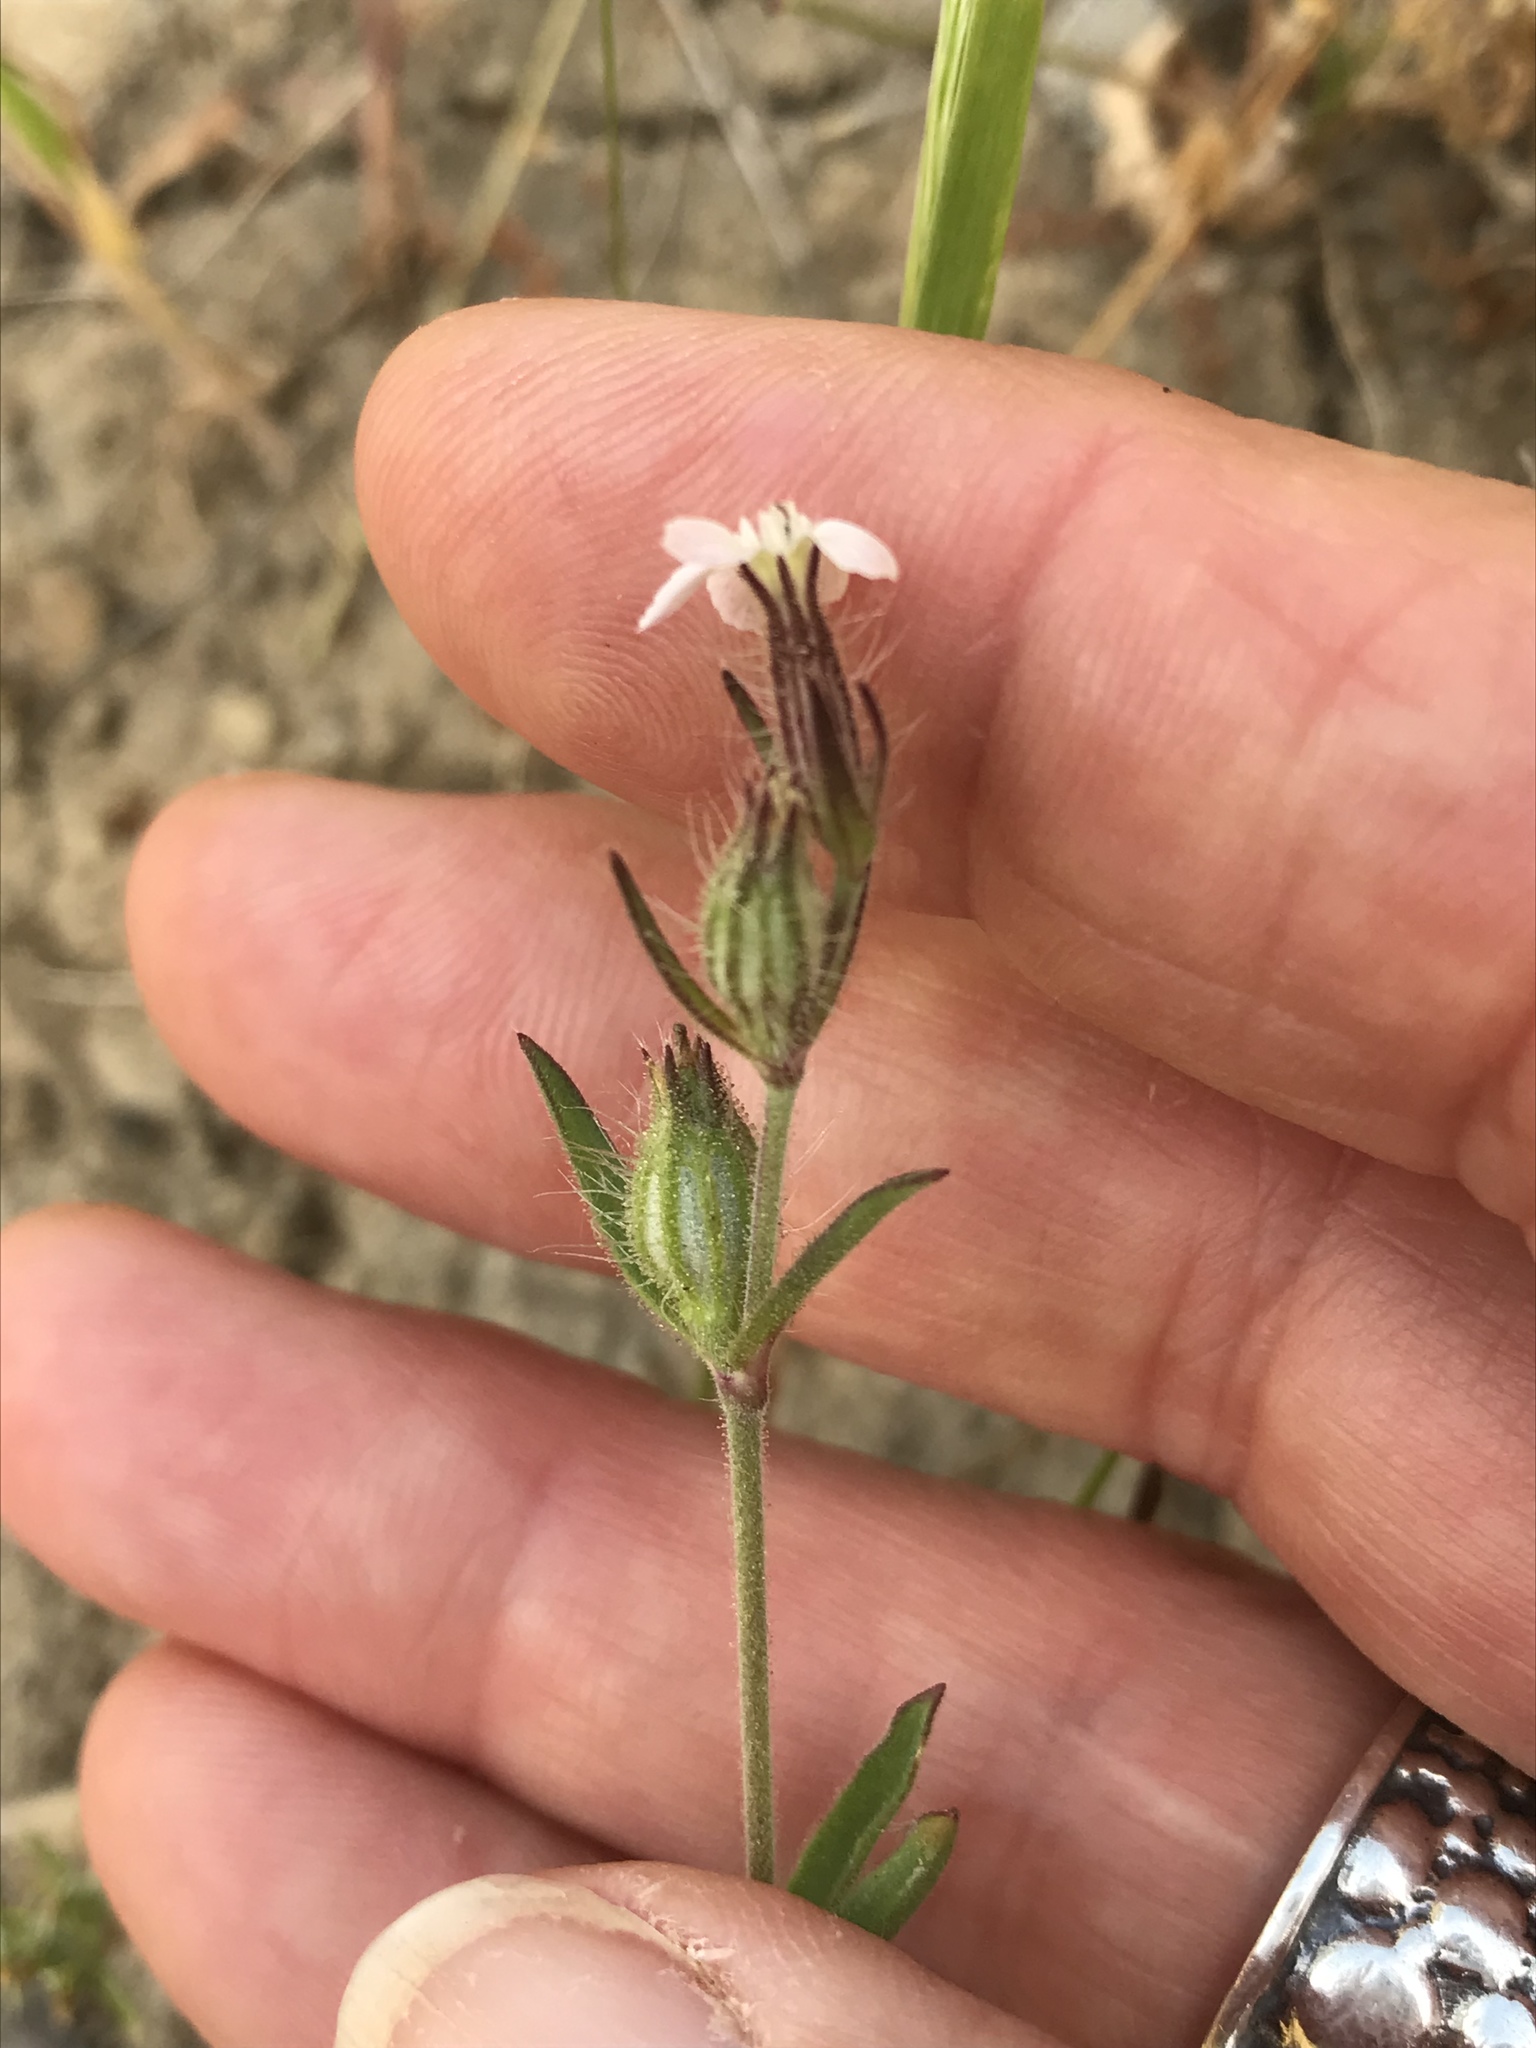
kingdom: Plantae
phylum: Tracheophyta
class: Magnoliopsida
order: Caryophyllales
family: Caryophyllaceae
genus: Silene
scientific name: Silene gallica
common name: Small-flowered catchfly
